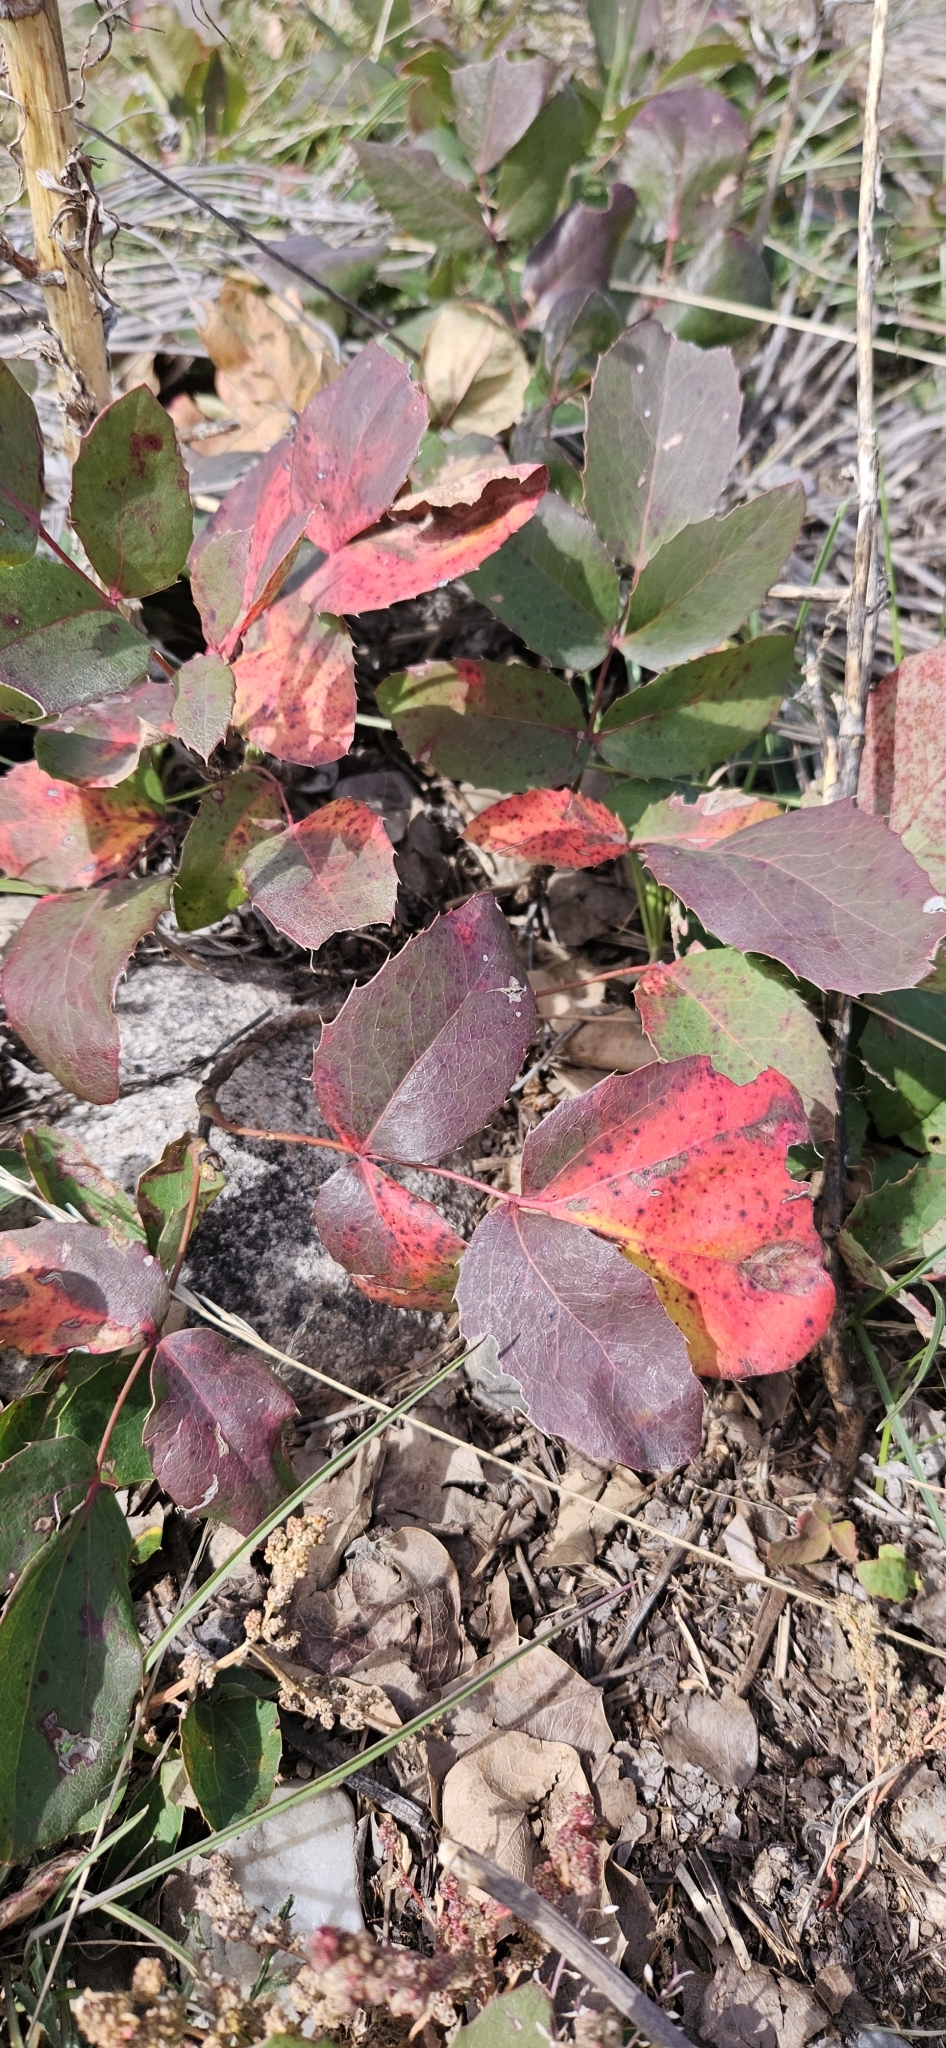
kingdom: Plantae
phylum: Tracheophyta
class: Magnoliopsida
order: Ranunculales
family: Berberidaceae
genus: Mahonia
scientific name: Mahonia repens
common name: Creeping oregon-grape
